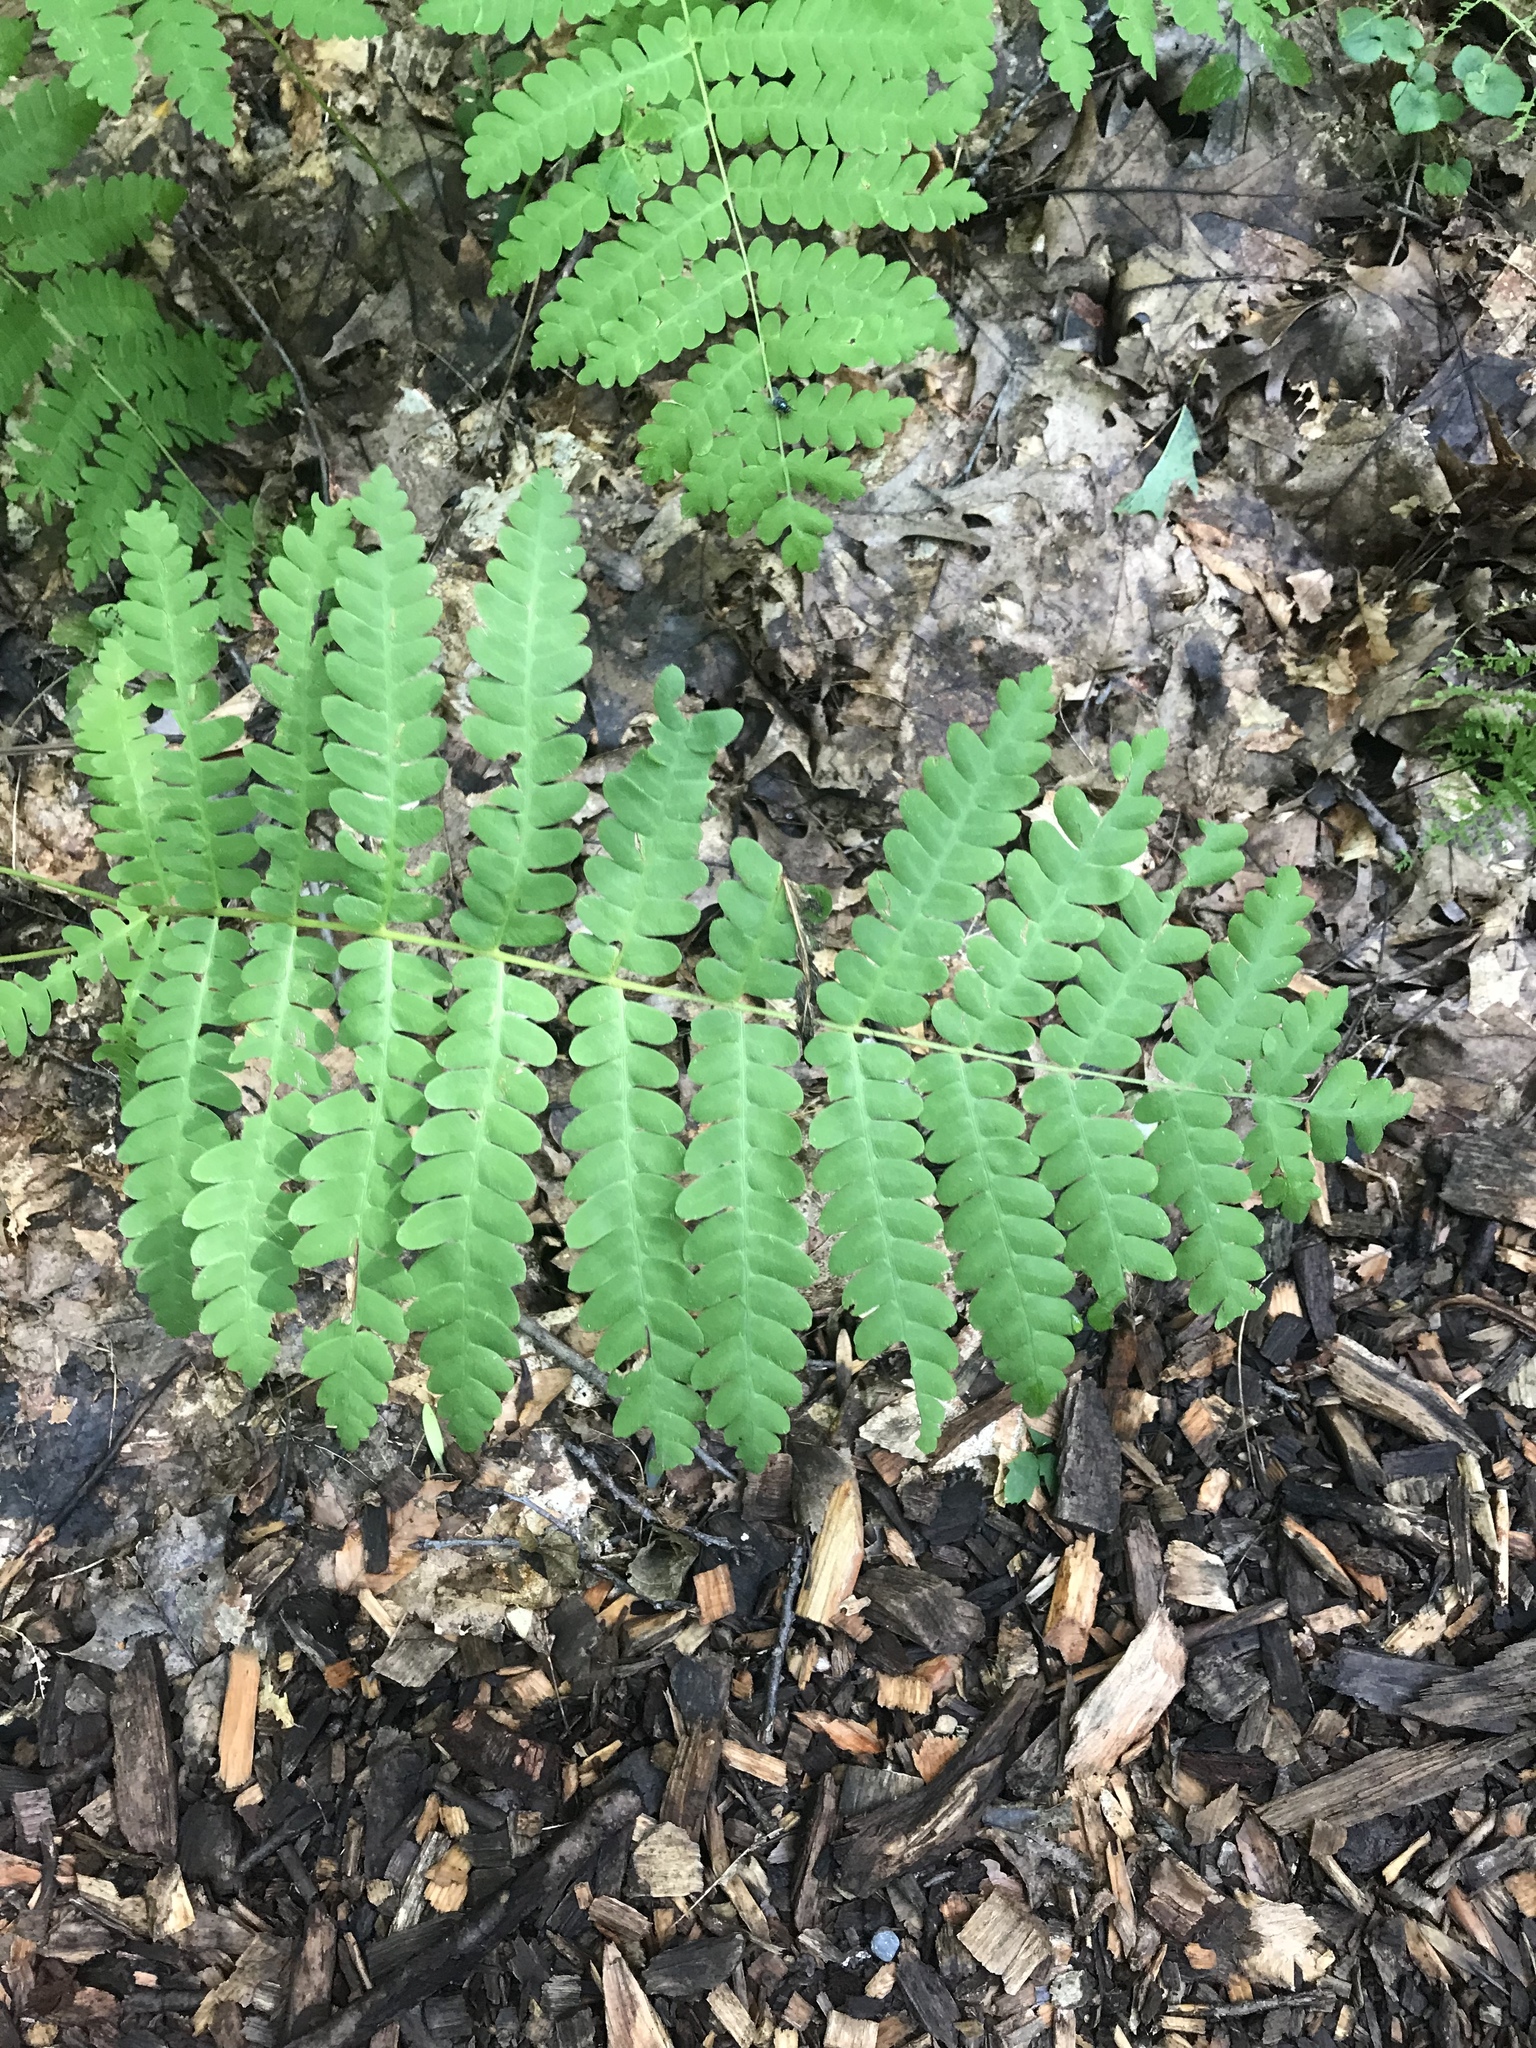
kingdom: Plantae
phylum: Tracheophyta
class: Polypodiopsida
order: Osmundales
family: Osmundaceae
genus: Claytosmunda
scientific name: Claytosmunda claytoniana
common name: Clayton's fern
